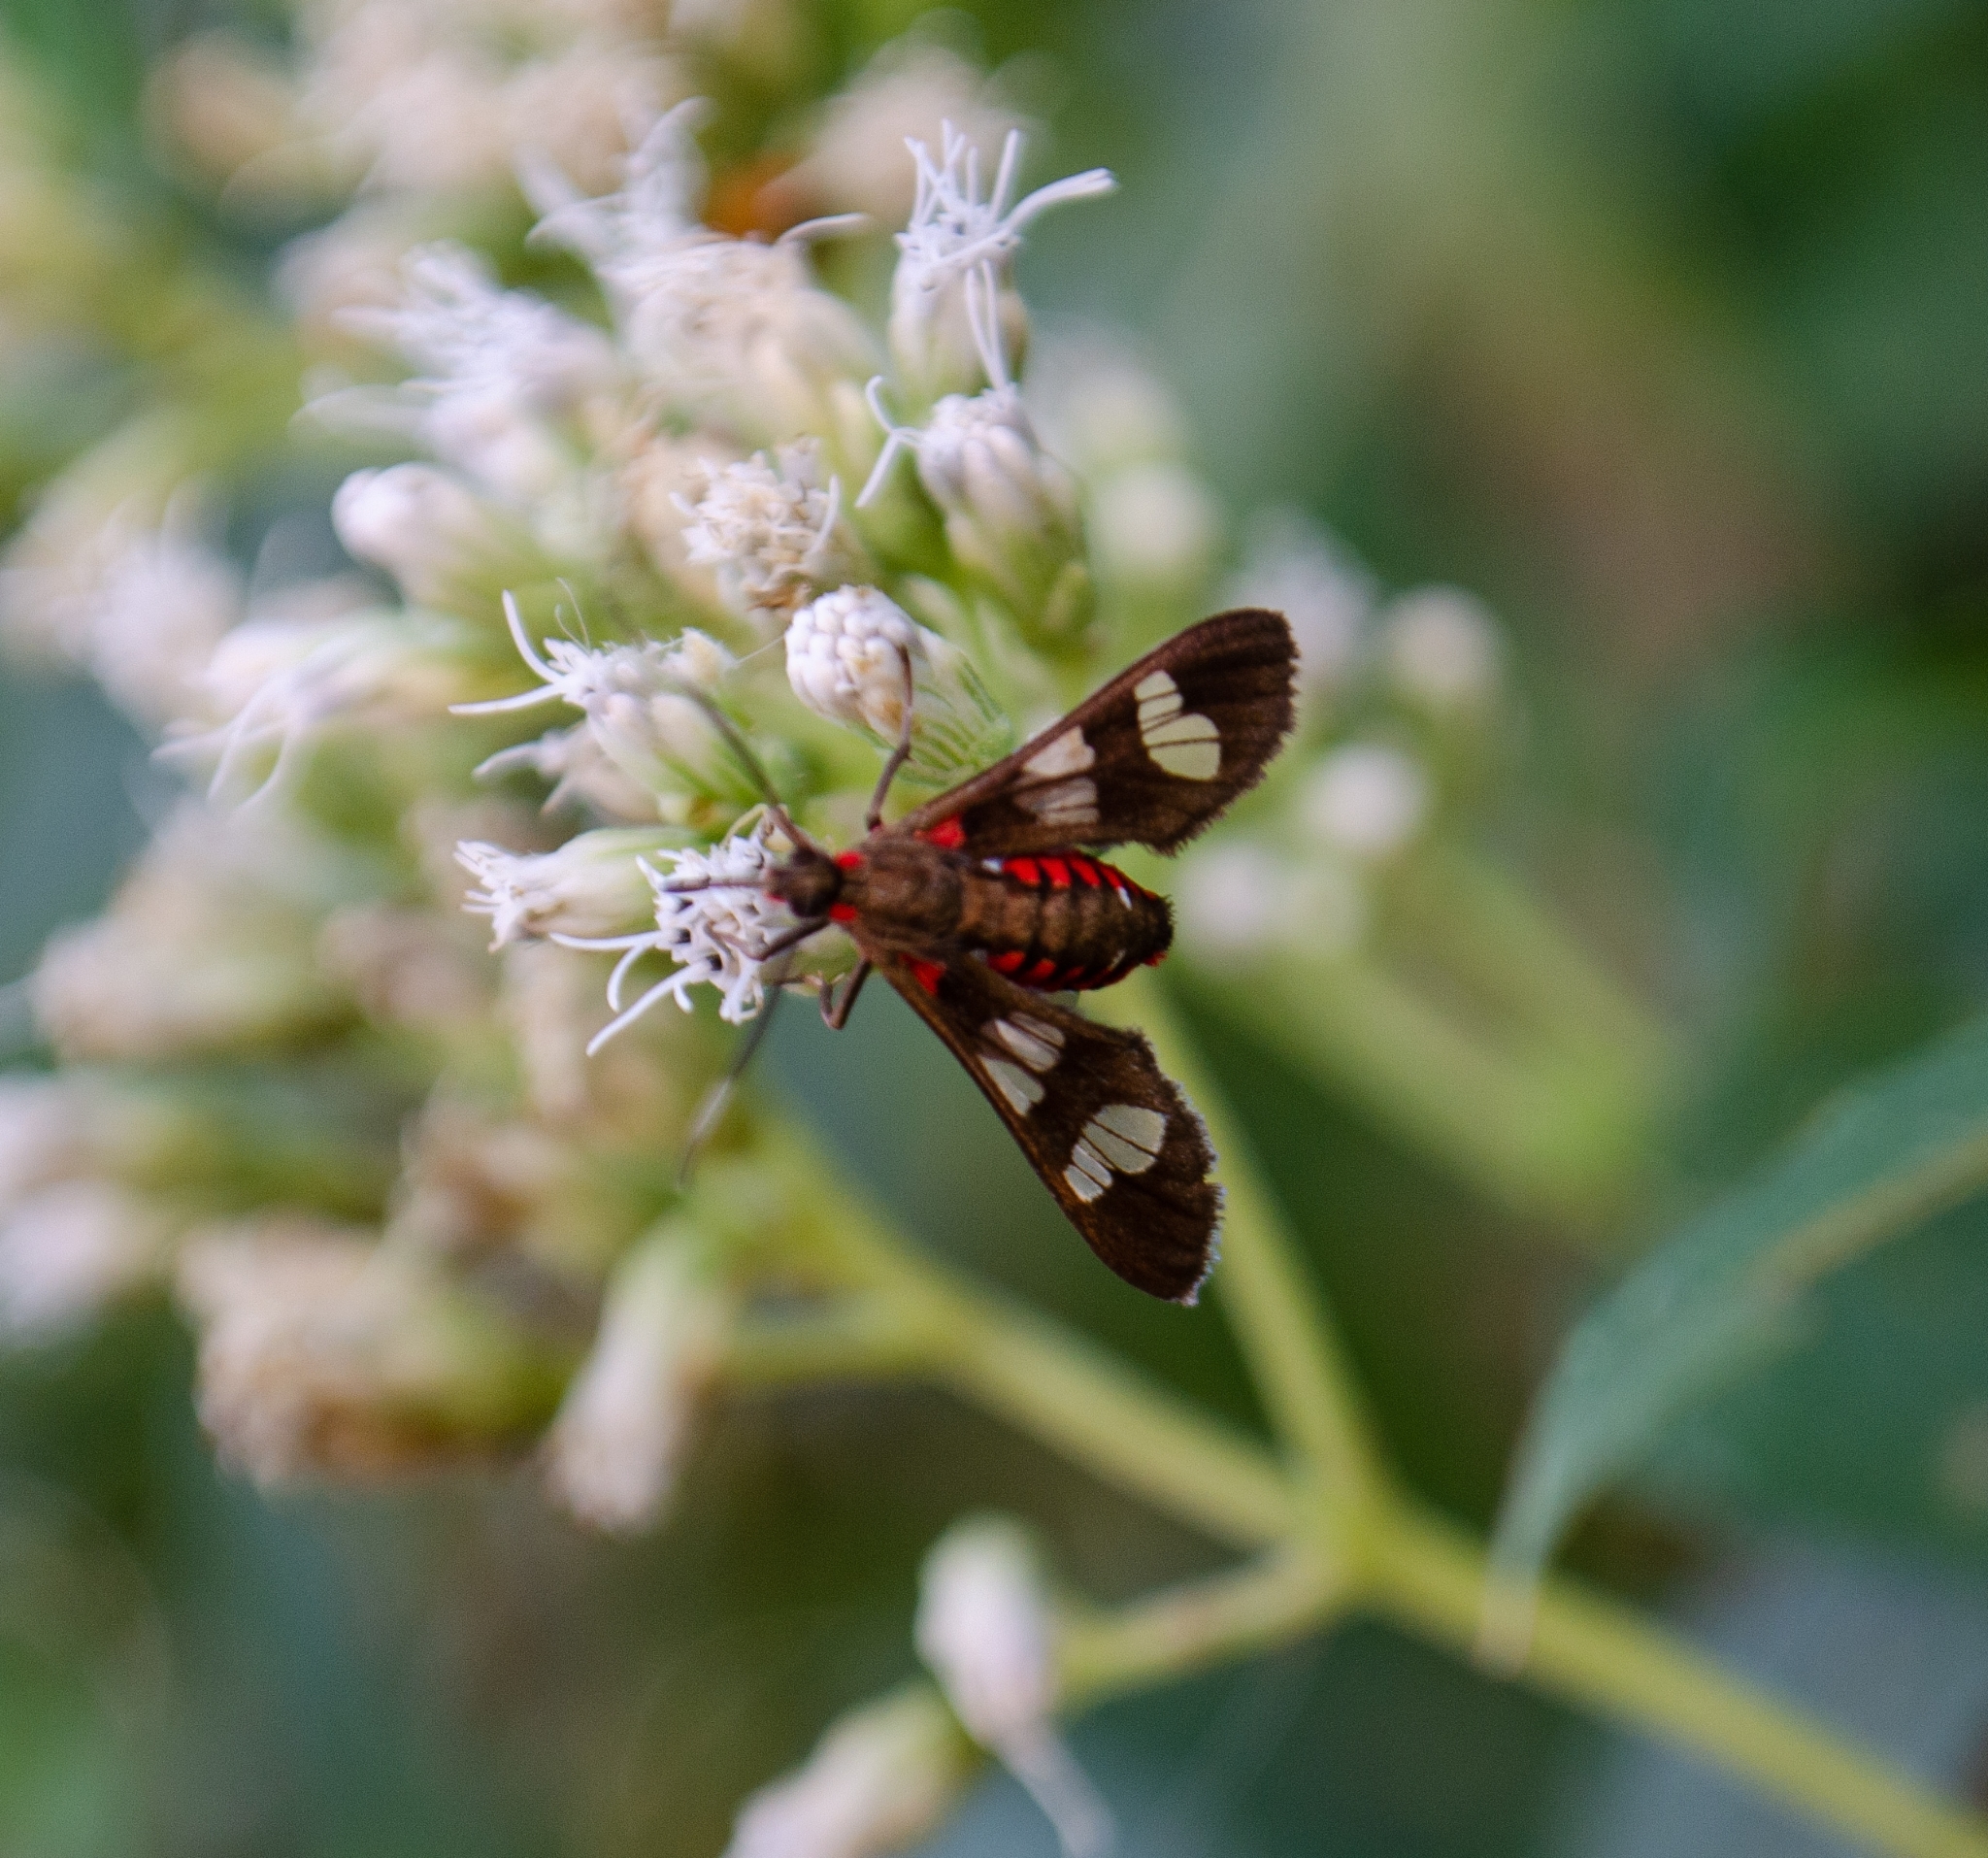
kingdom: Animalia
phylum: Arthropoda
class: Insecta
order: Lepidoptera
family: Erebidae
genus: Phoenicoprocta
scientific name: Phoenicoprocta teda
